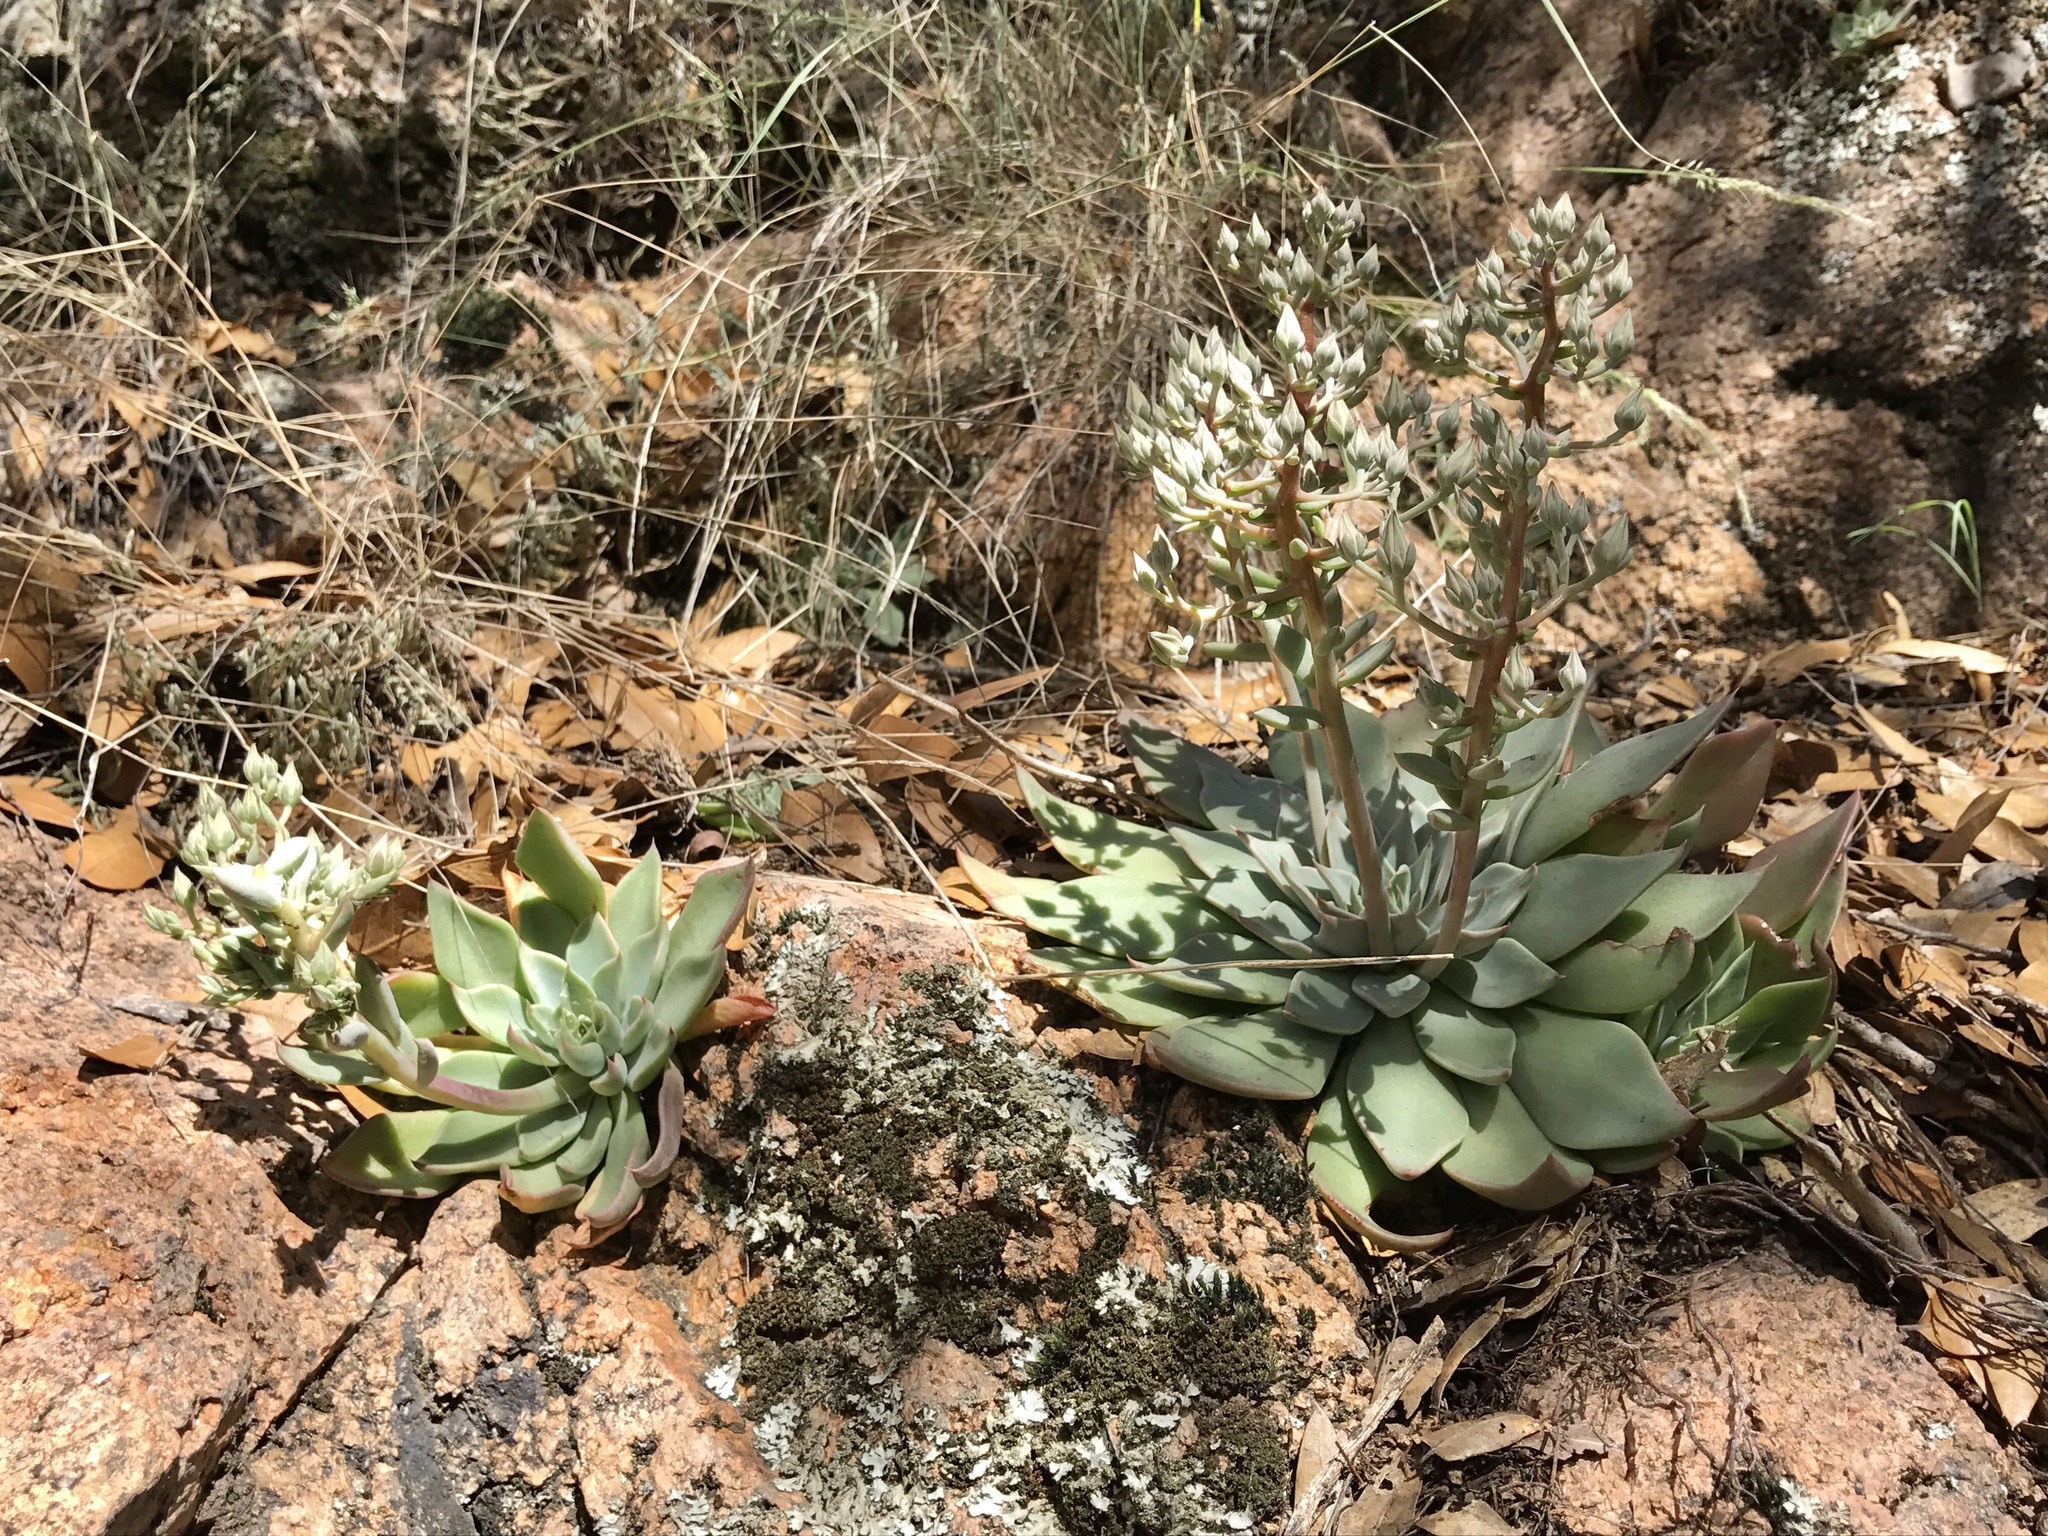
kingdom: Plantae
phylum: Tracheophyta
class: Magnoliopsida
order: Saxifragales
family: Crassulaceae
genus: Graptopetalum
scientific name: Graptopetalum bartramii
